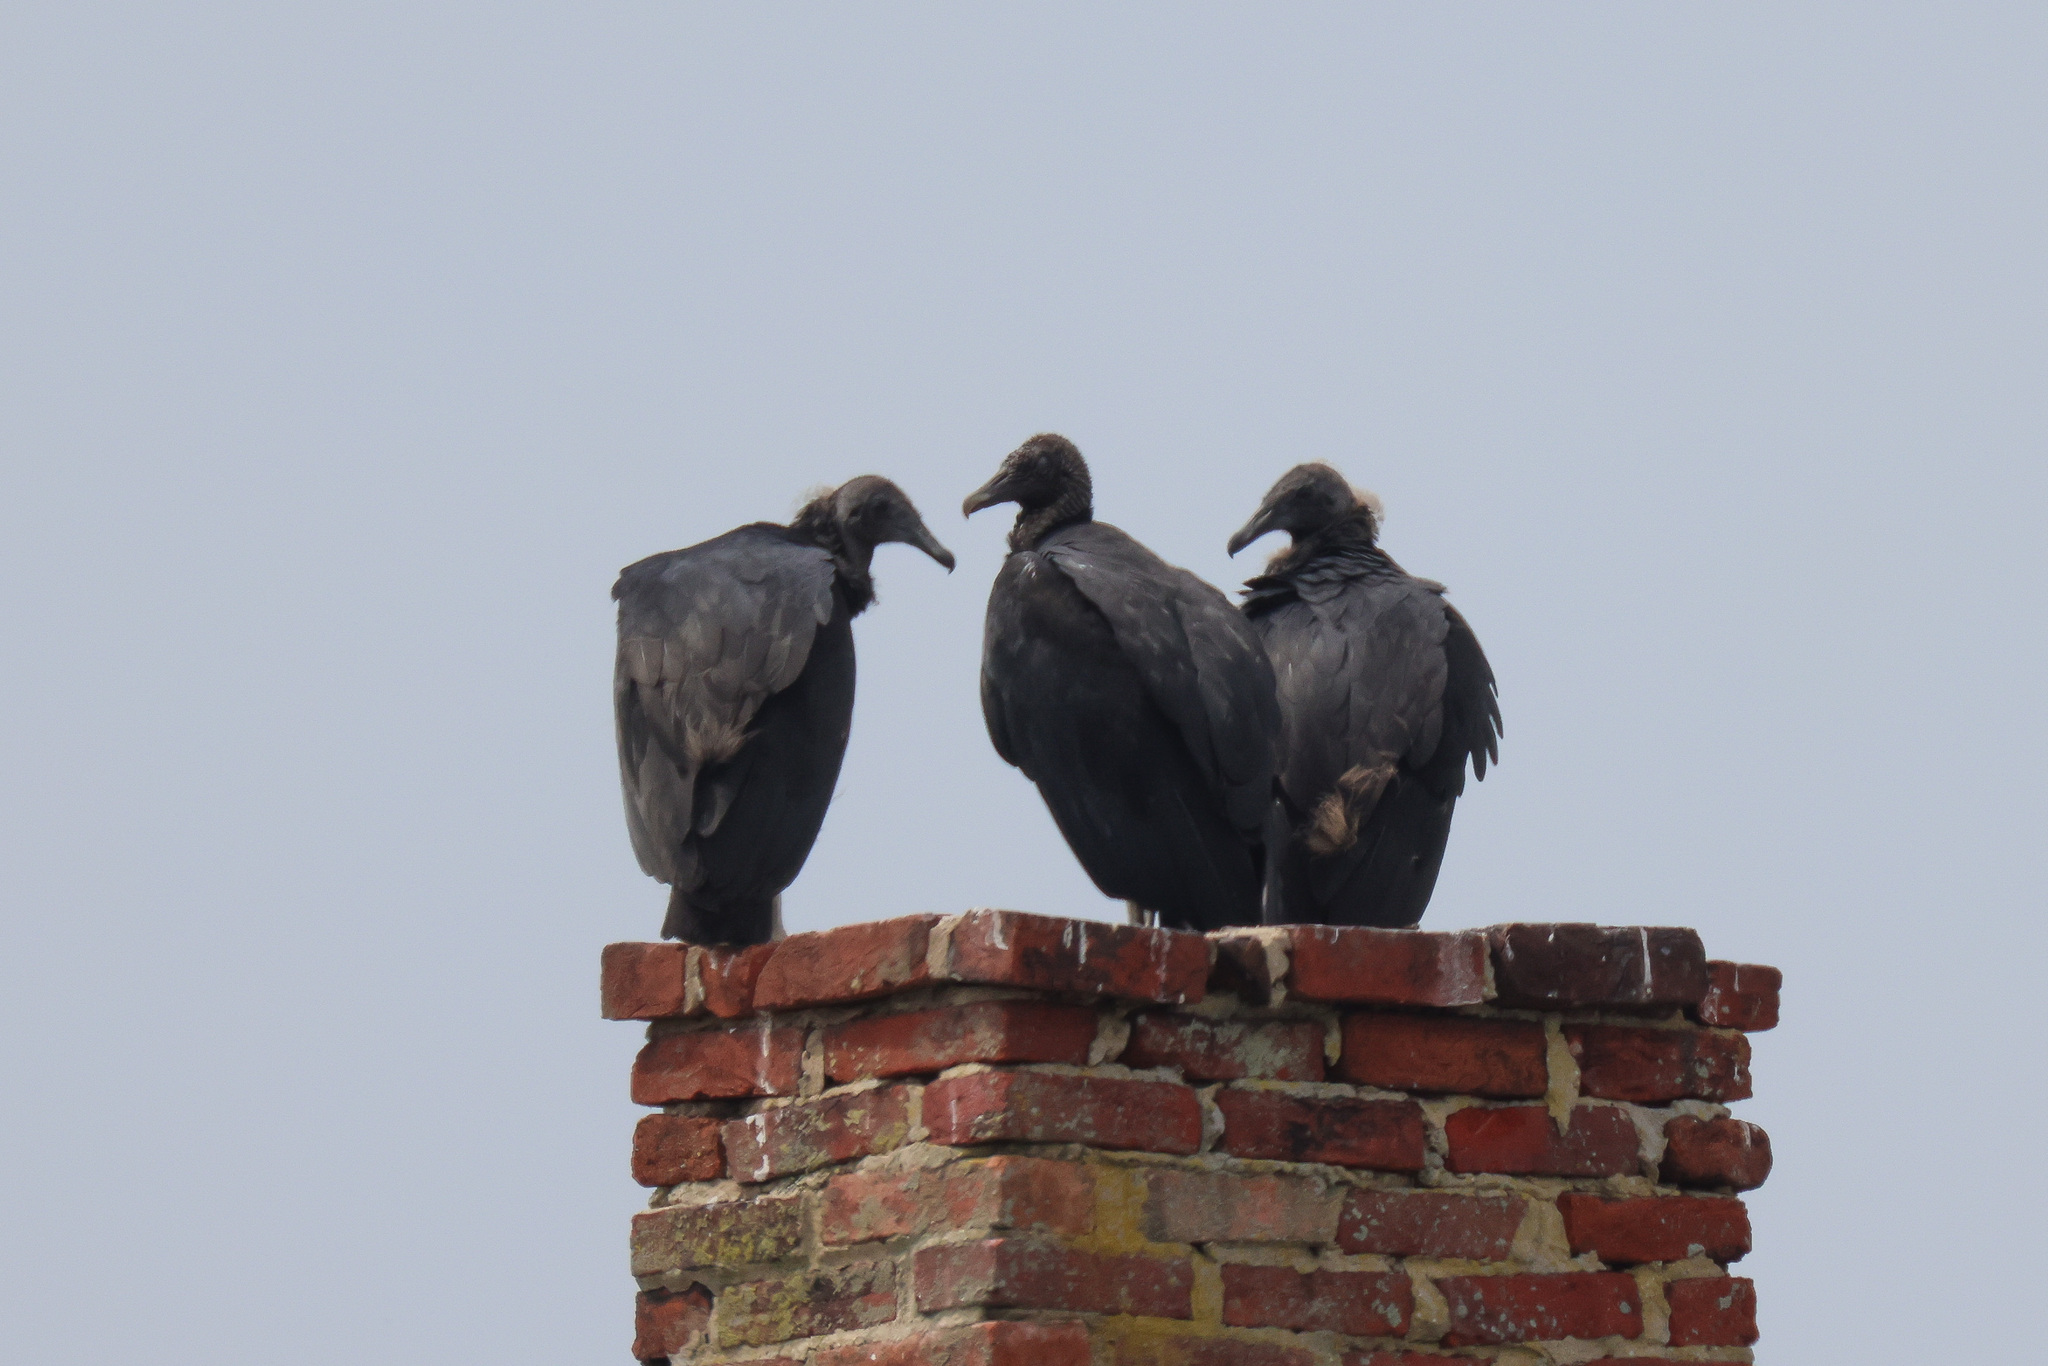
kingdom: Animalia
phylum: Chordata
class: Aves
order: Accipitriformes
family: Cathartidae
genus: Coragyps
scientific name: Coragyps atratus
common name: Black vulture
